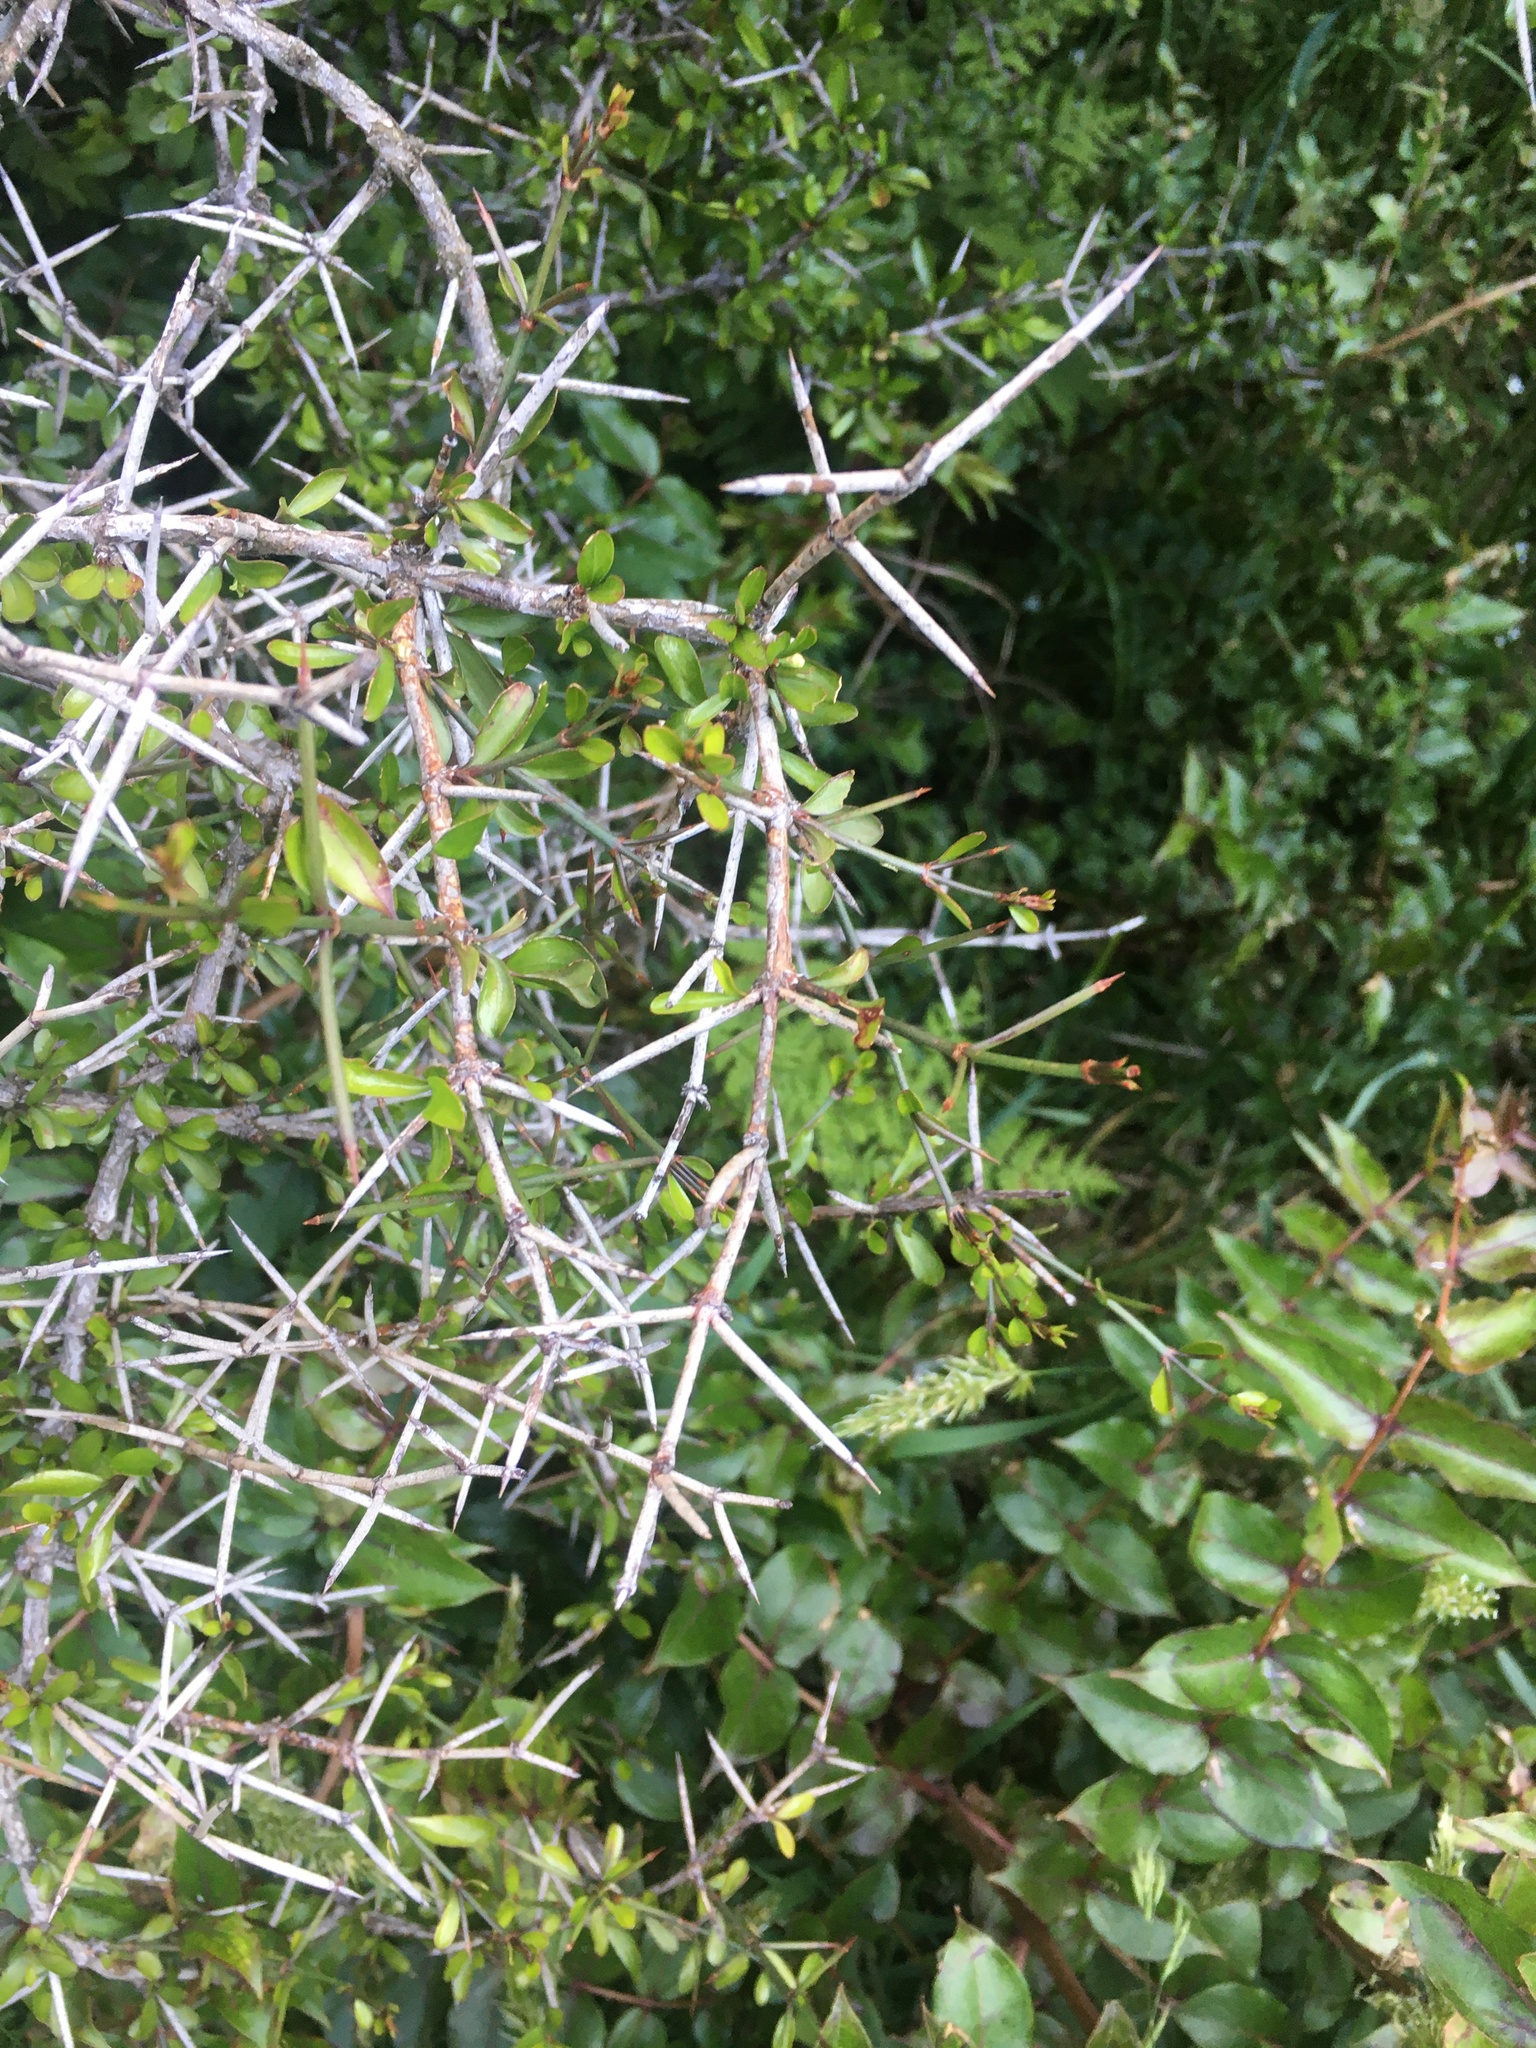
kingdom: Plantae
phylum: Tracheophyta
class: Magnoliopsida
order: Rosales
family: Rhamnaceae
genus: Discaria
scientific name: Discaria toumatou
